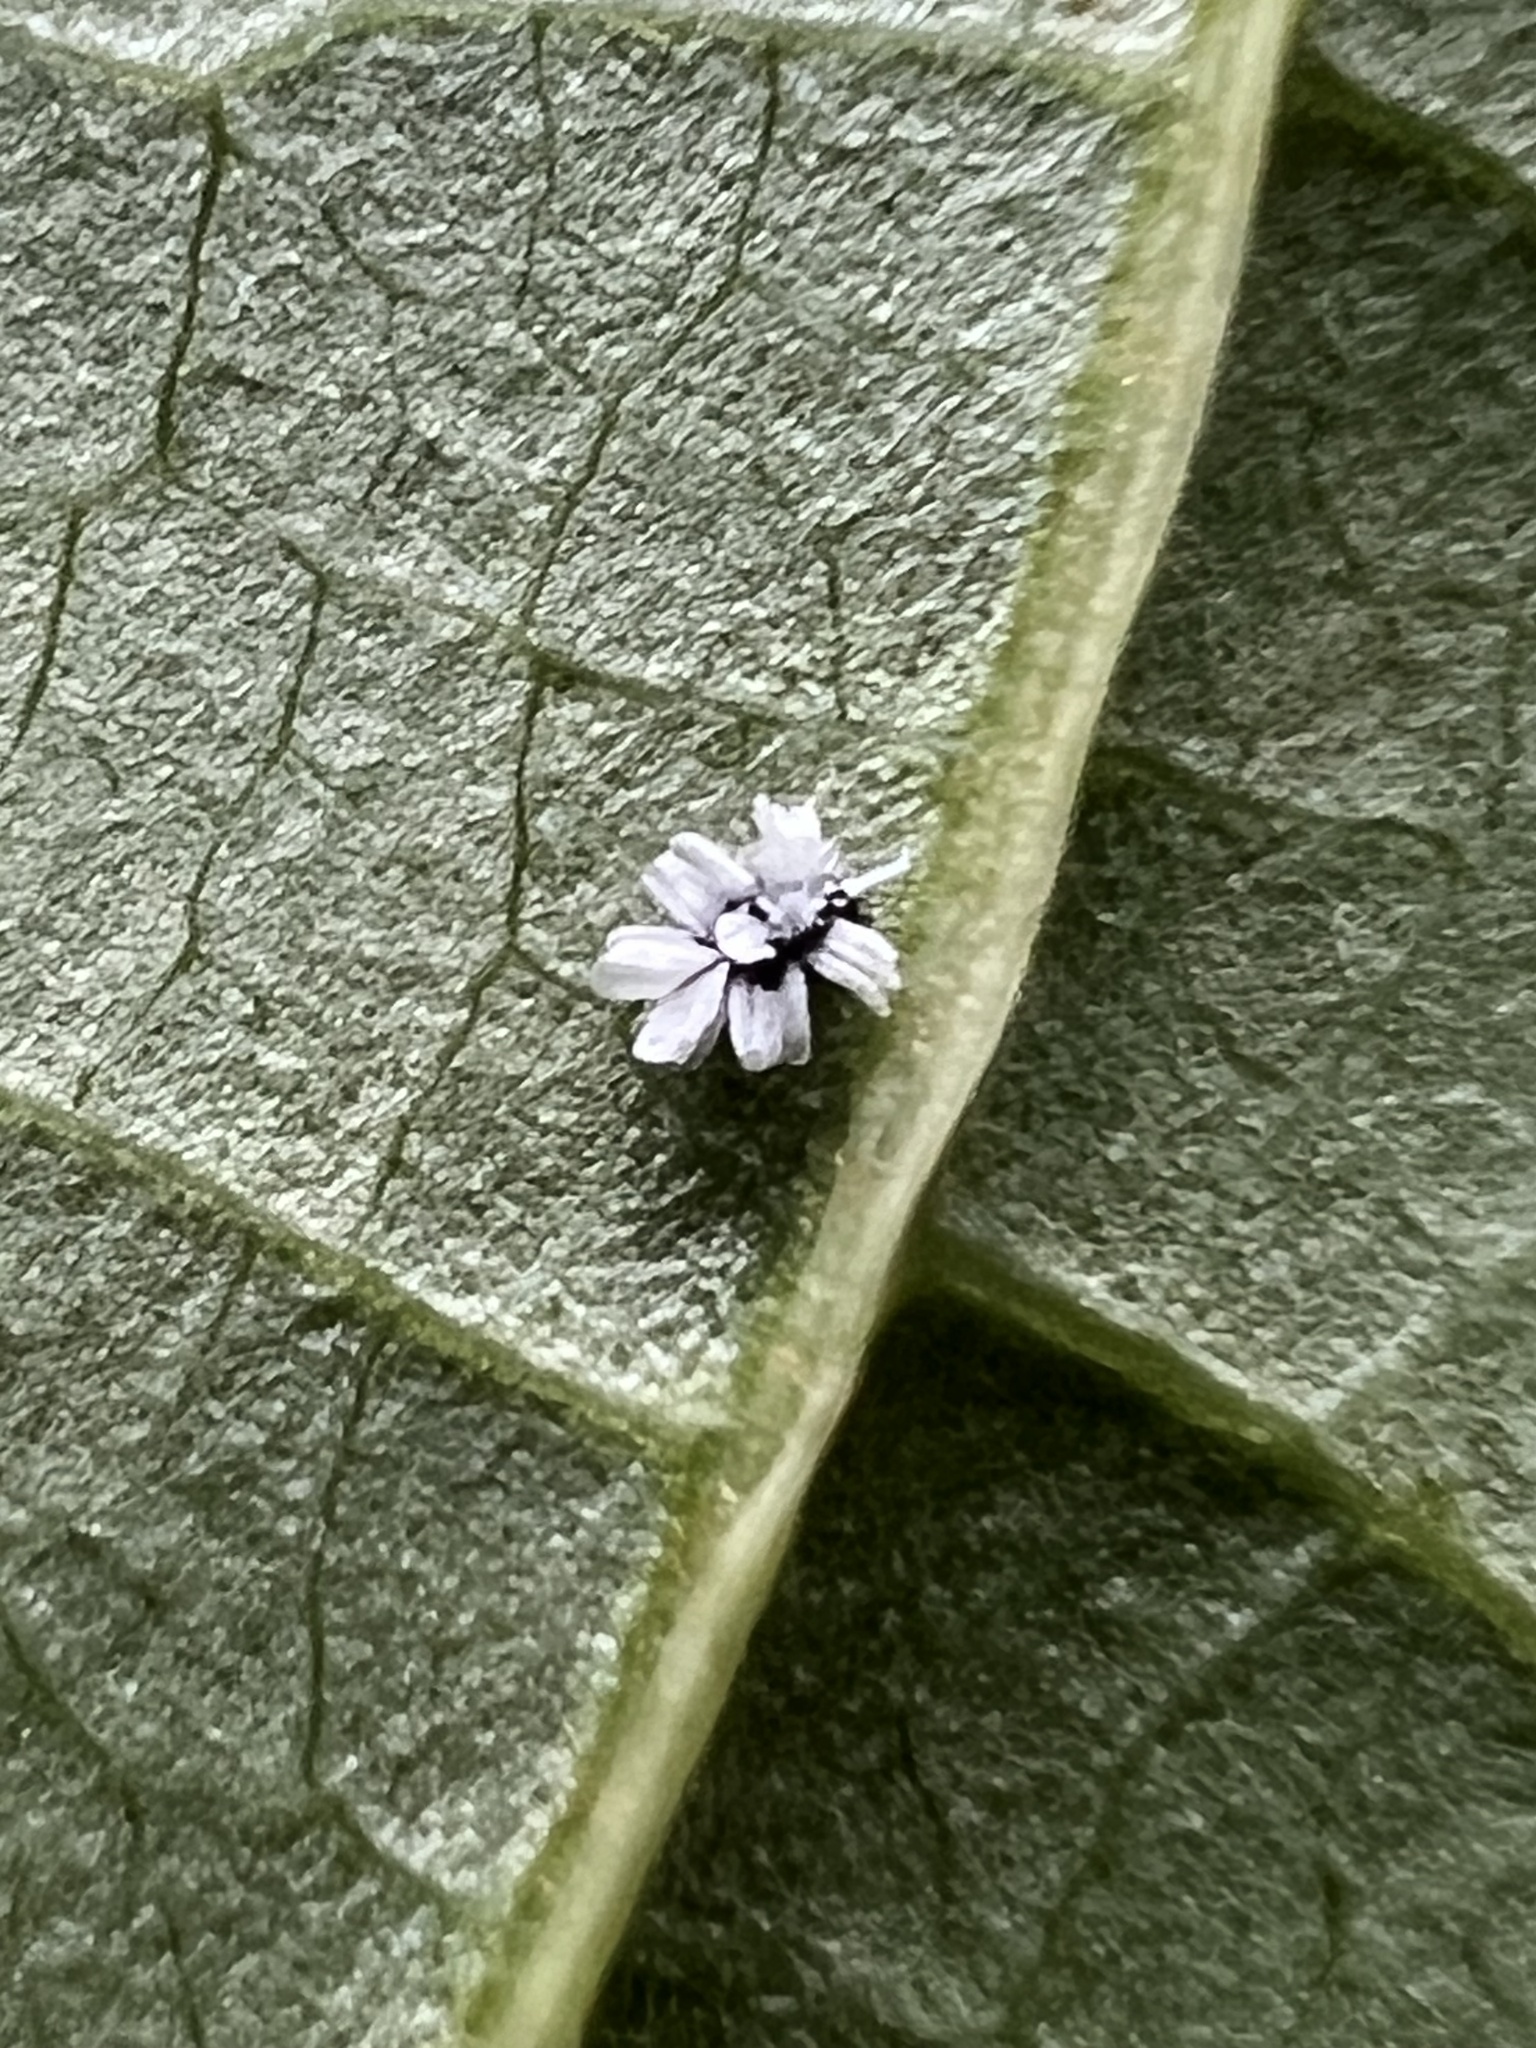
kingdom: Animalia
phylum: Arthropoda
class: Insecta
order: Hemiptera
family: Aleyrodidae
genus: Aleuroplatus
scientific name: Aleuroplatus coronata
